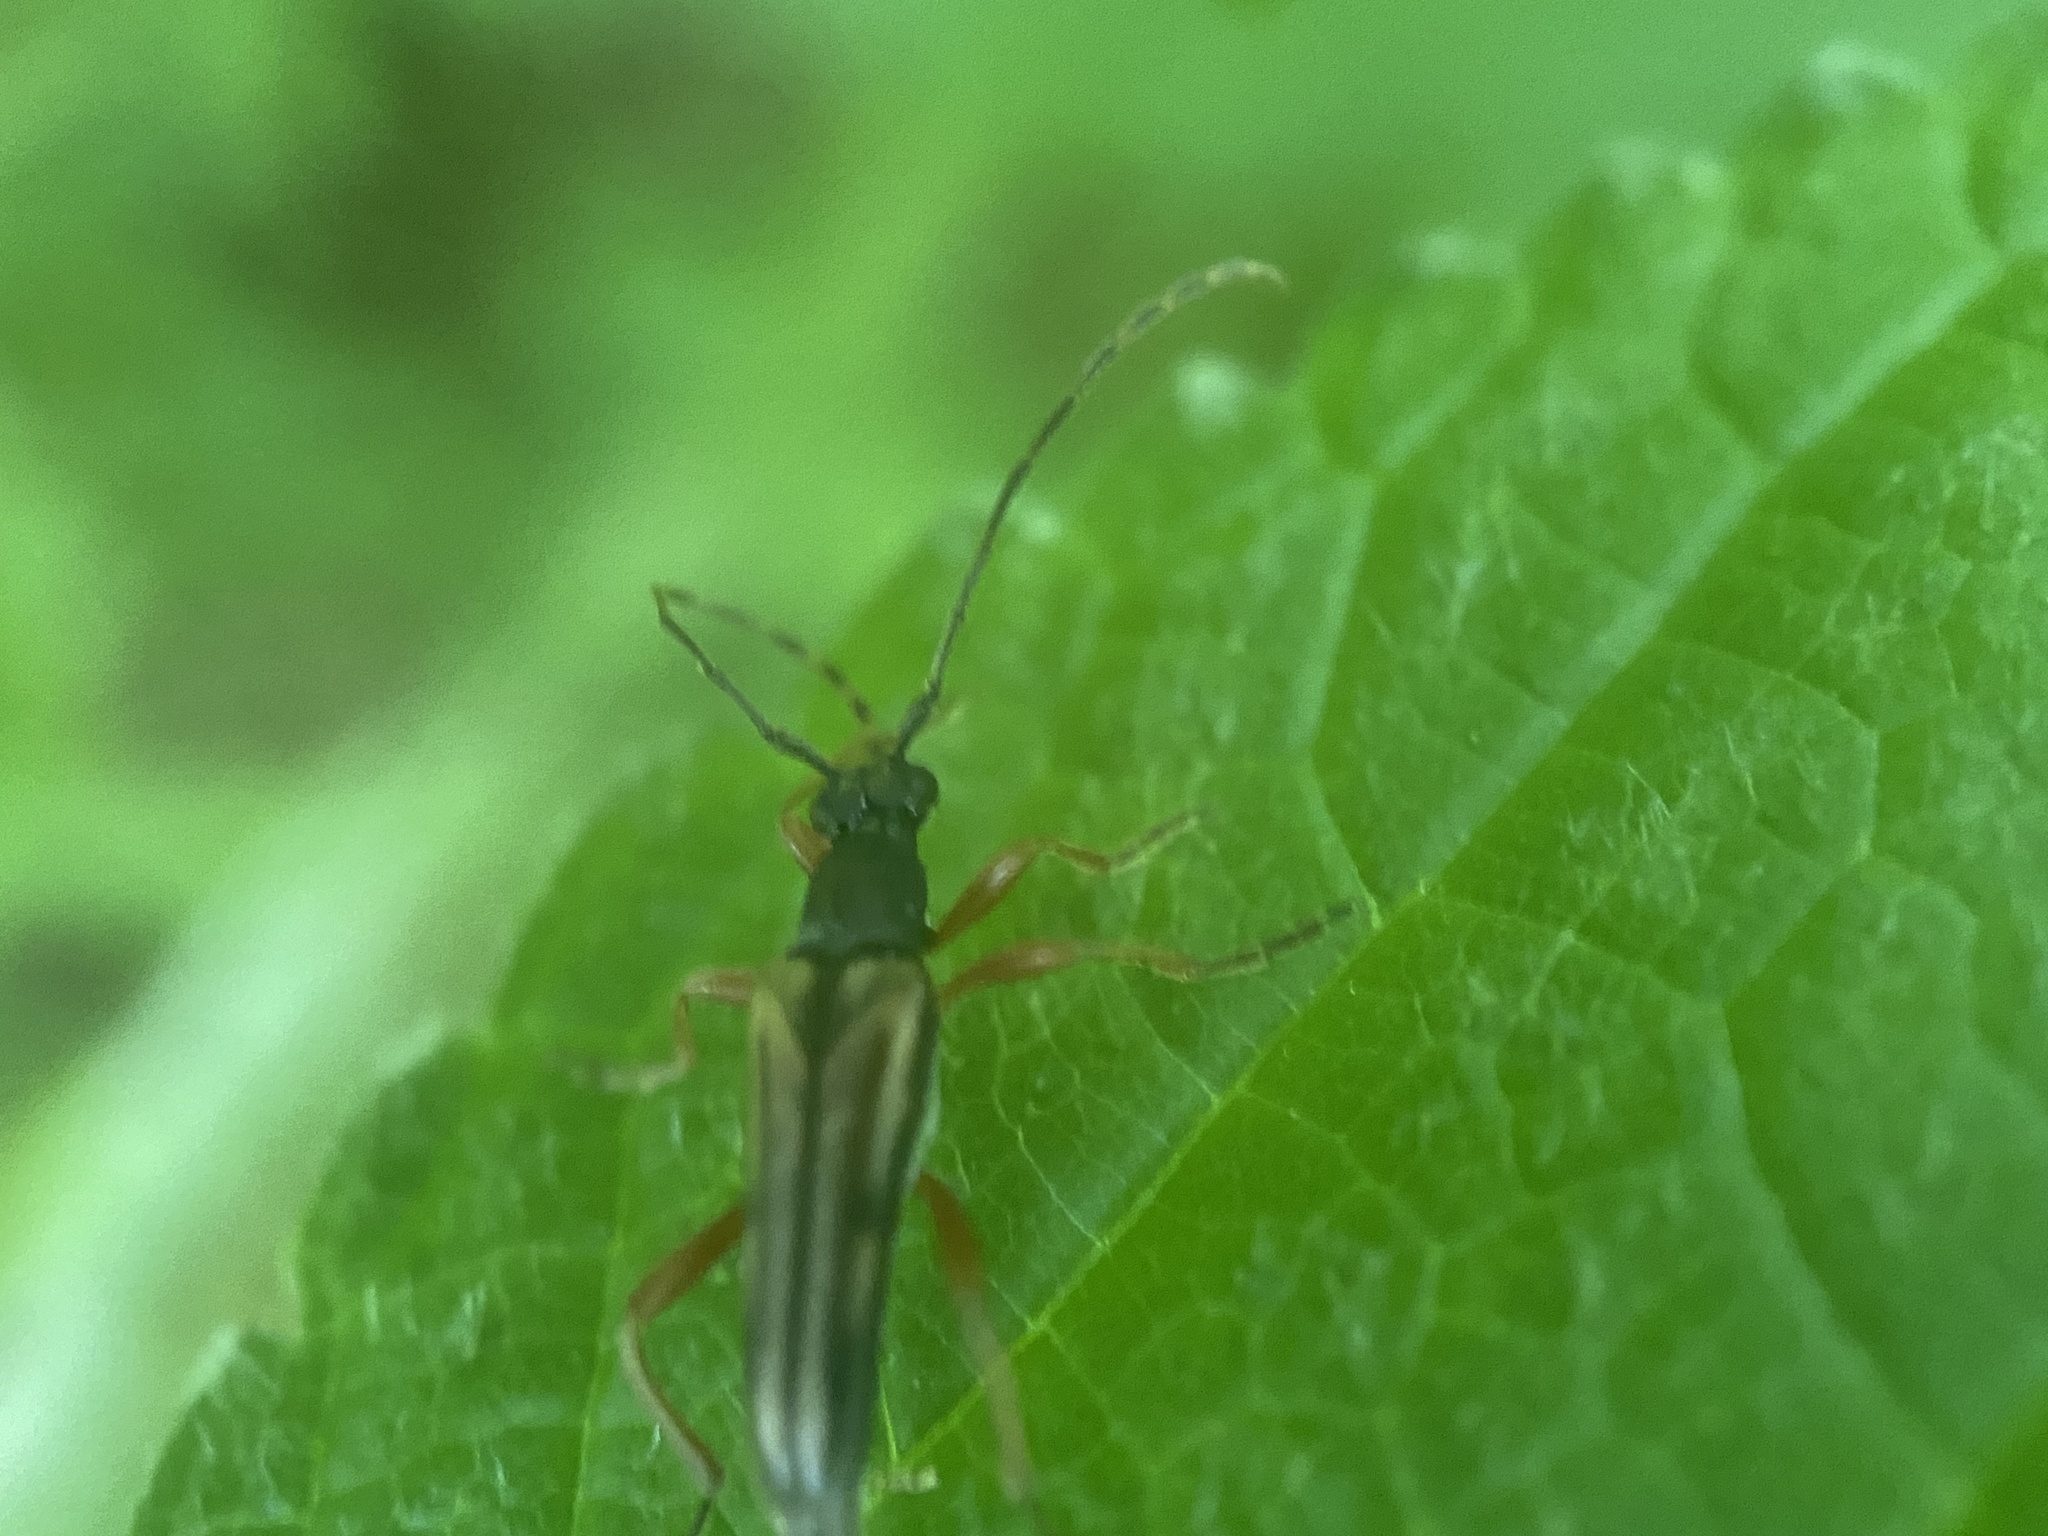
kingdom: Animalia
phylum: Arthropoda
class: Insecta
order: Coleoptera
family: Cerambycidae
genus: Analeptura
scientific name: Analeptura lineola
